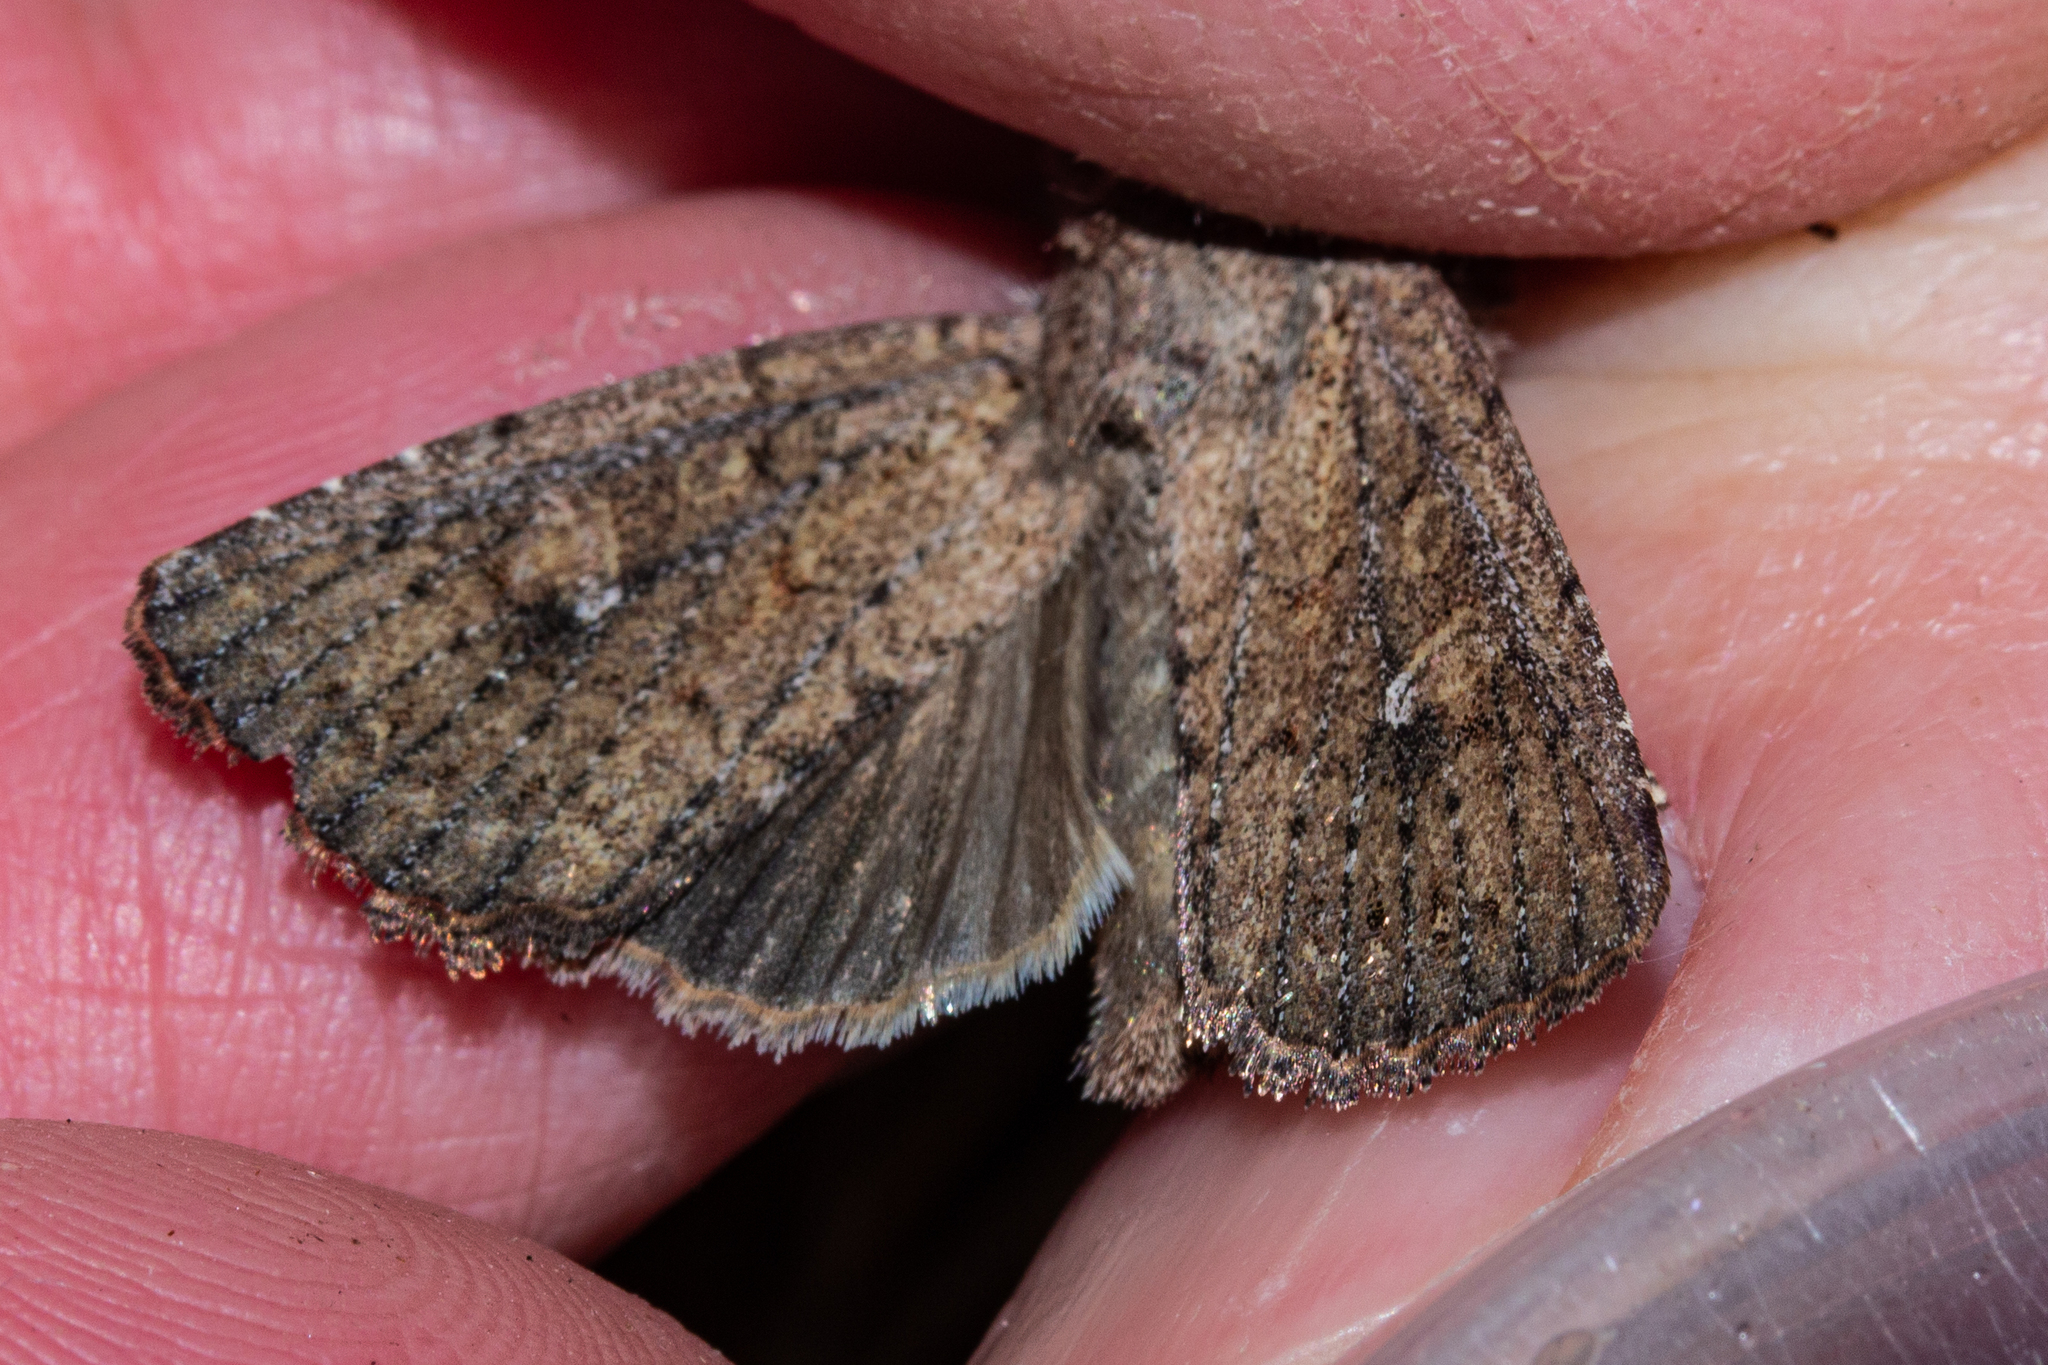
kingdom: Animalia
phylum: Arthropoda
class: Insecta
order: Lepidoptera
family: Noctuidae
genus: Ichneutica
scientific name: Ichneutica
